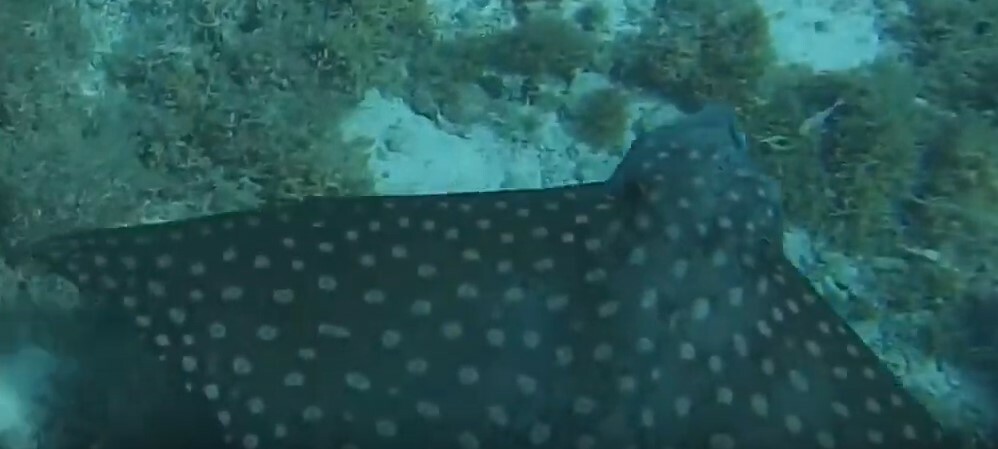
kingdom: Animalia
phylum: Chordata
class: Elasmobranchii
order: Myliobatiformes
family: Myliobatidae
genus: Aetobatus
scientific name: Aetobatus narinari
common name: Spotted eagle ray
